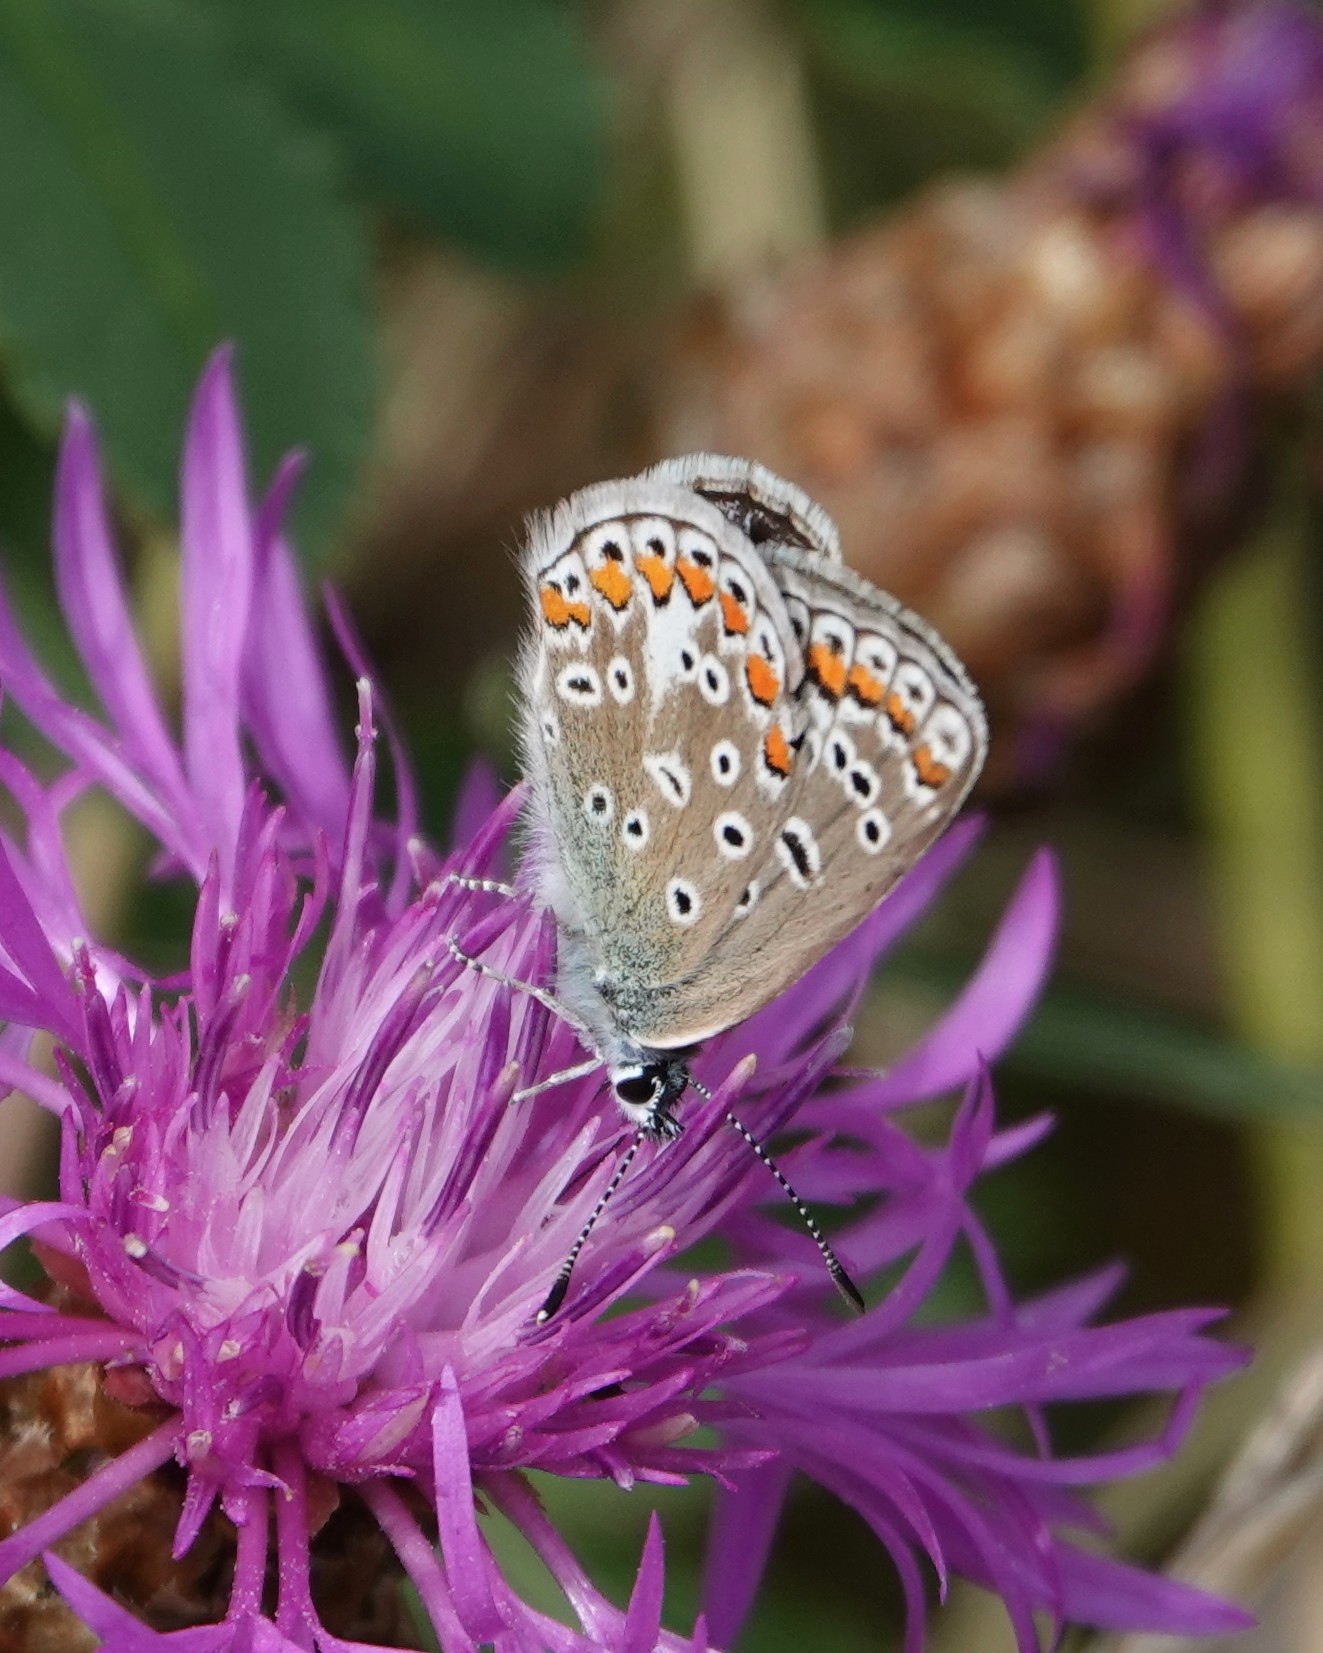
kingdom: Animalia
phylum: Arthropoda
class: Insecta
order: Lepidoptera
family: Lycaenidae
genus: Polyommatus
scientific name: Polyommatus icarus
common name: Common blue
